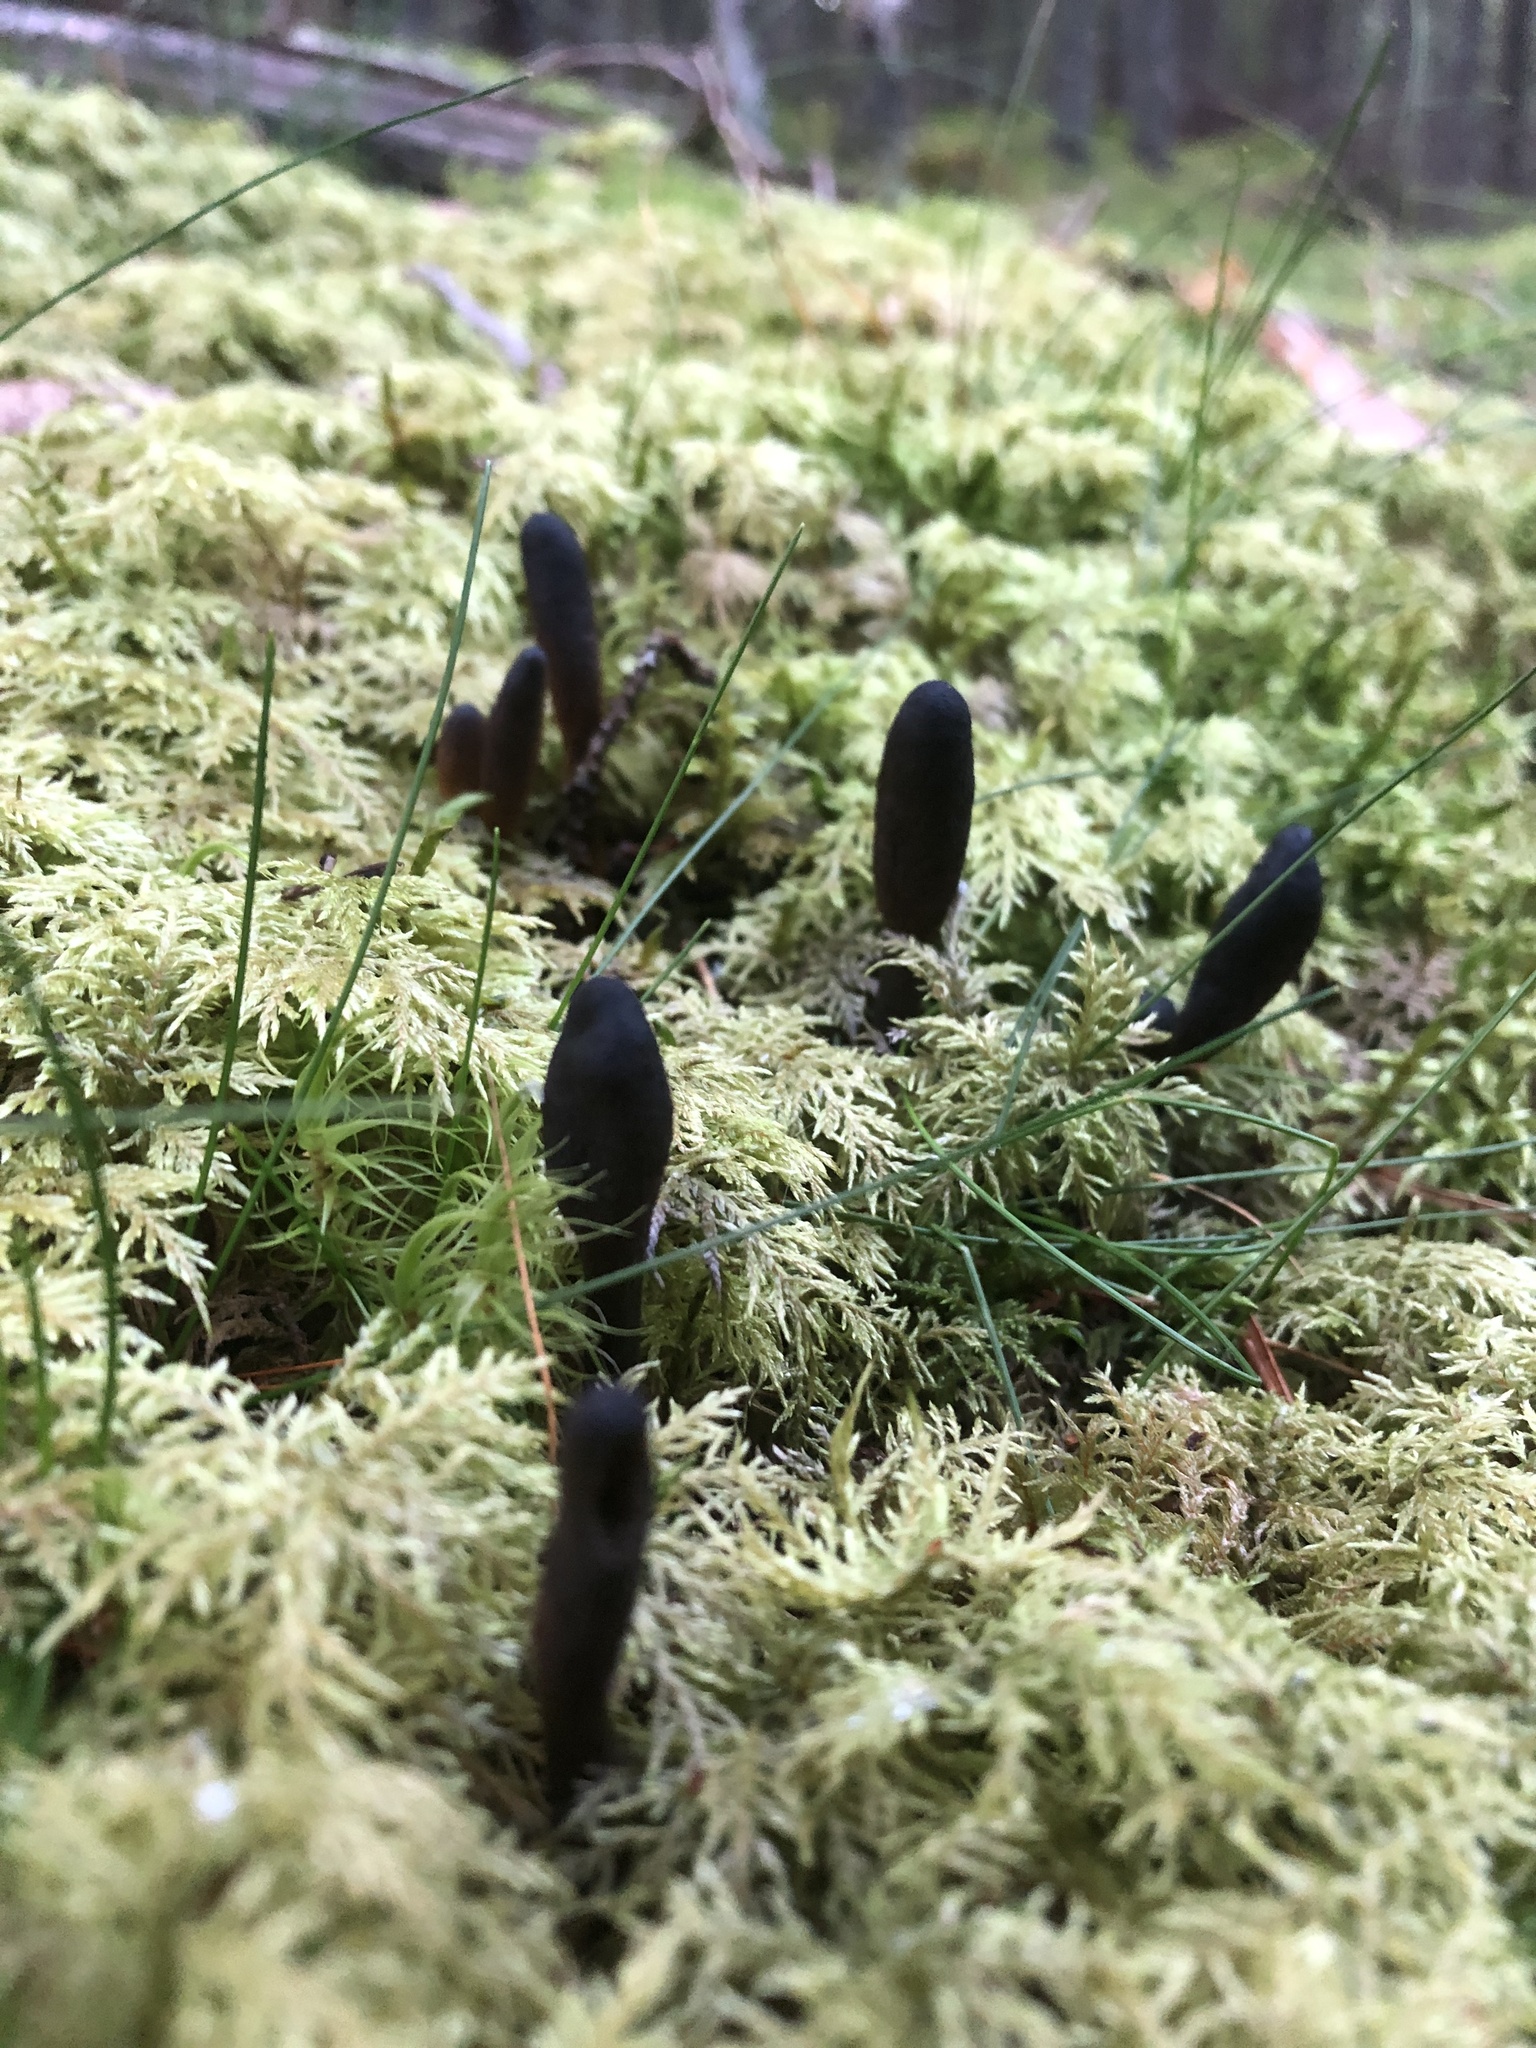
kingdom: Fungi
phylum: Ascomycota
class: Sordariomycetes
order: Hypocreales
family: Ophiocordycipitaceae
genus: Tolypocladium
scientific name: Tolypocladium ophioglossoides
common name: Snaketongue truffleclub
